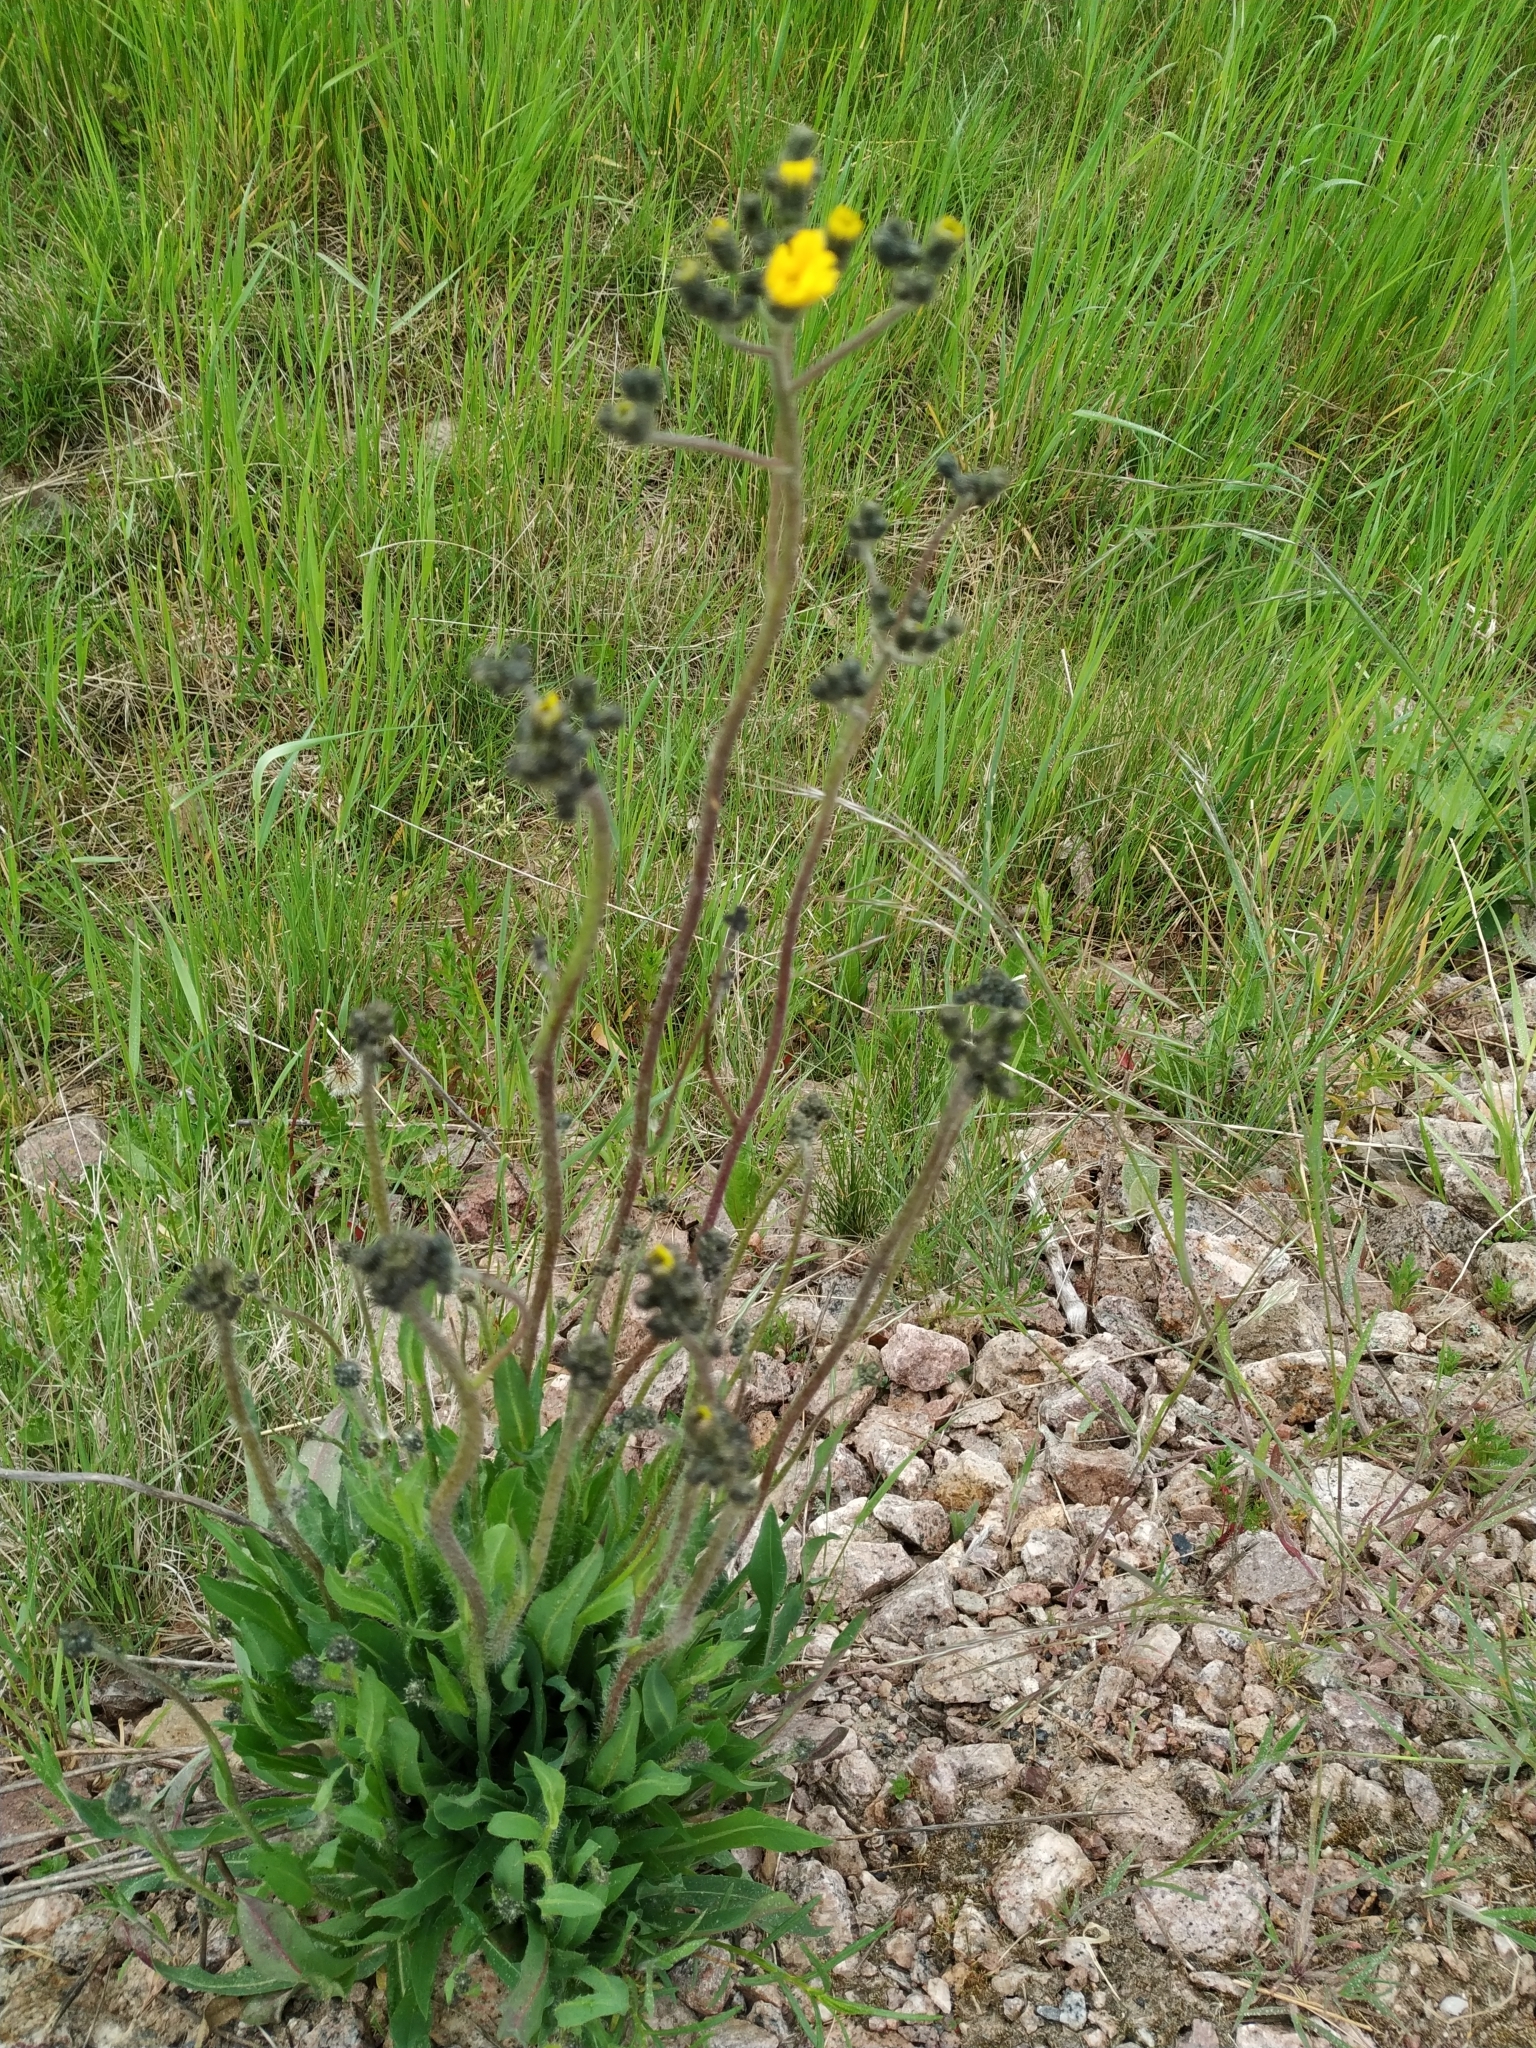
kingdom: Plantae
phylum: Tracheophyta
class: Magnoliopsida
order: Asterales
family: Asteraceae
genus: Pilosella
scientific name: Pilosella floribunda
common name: Glaucous hawkweed
